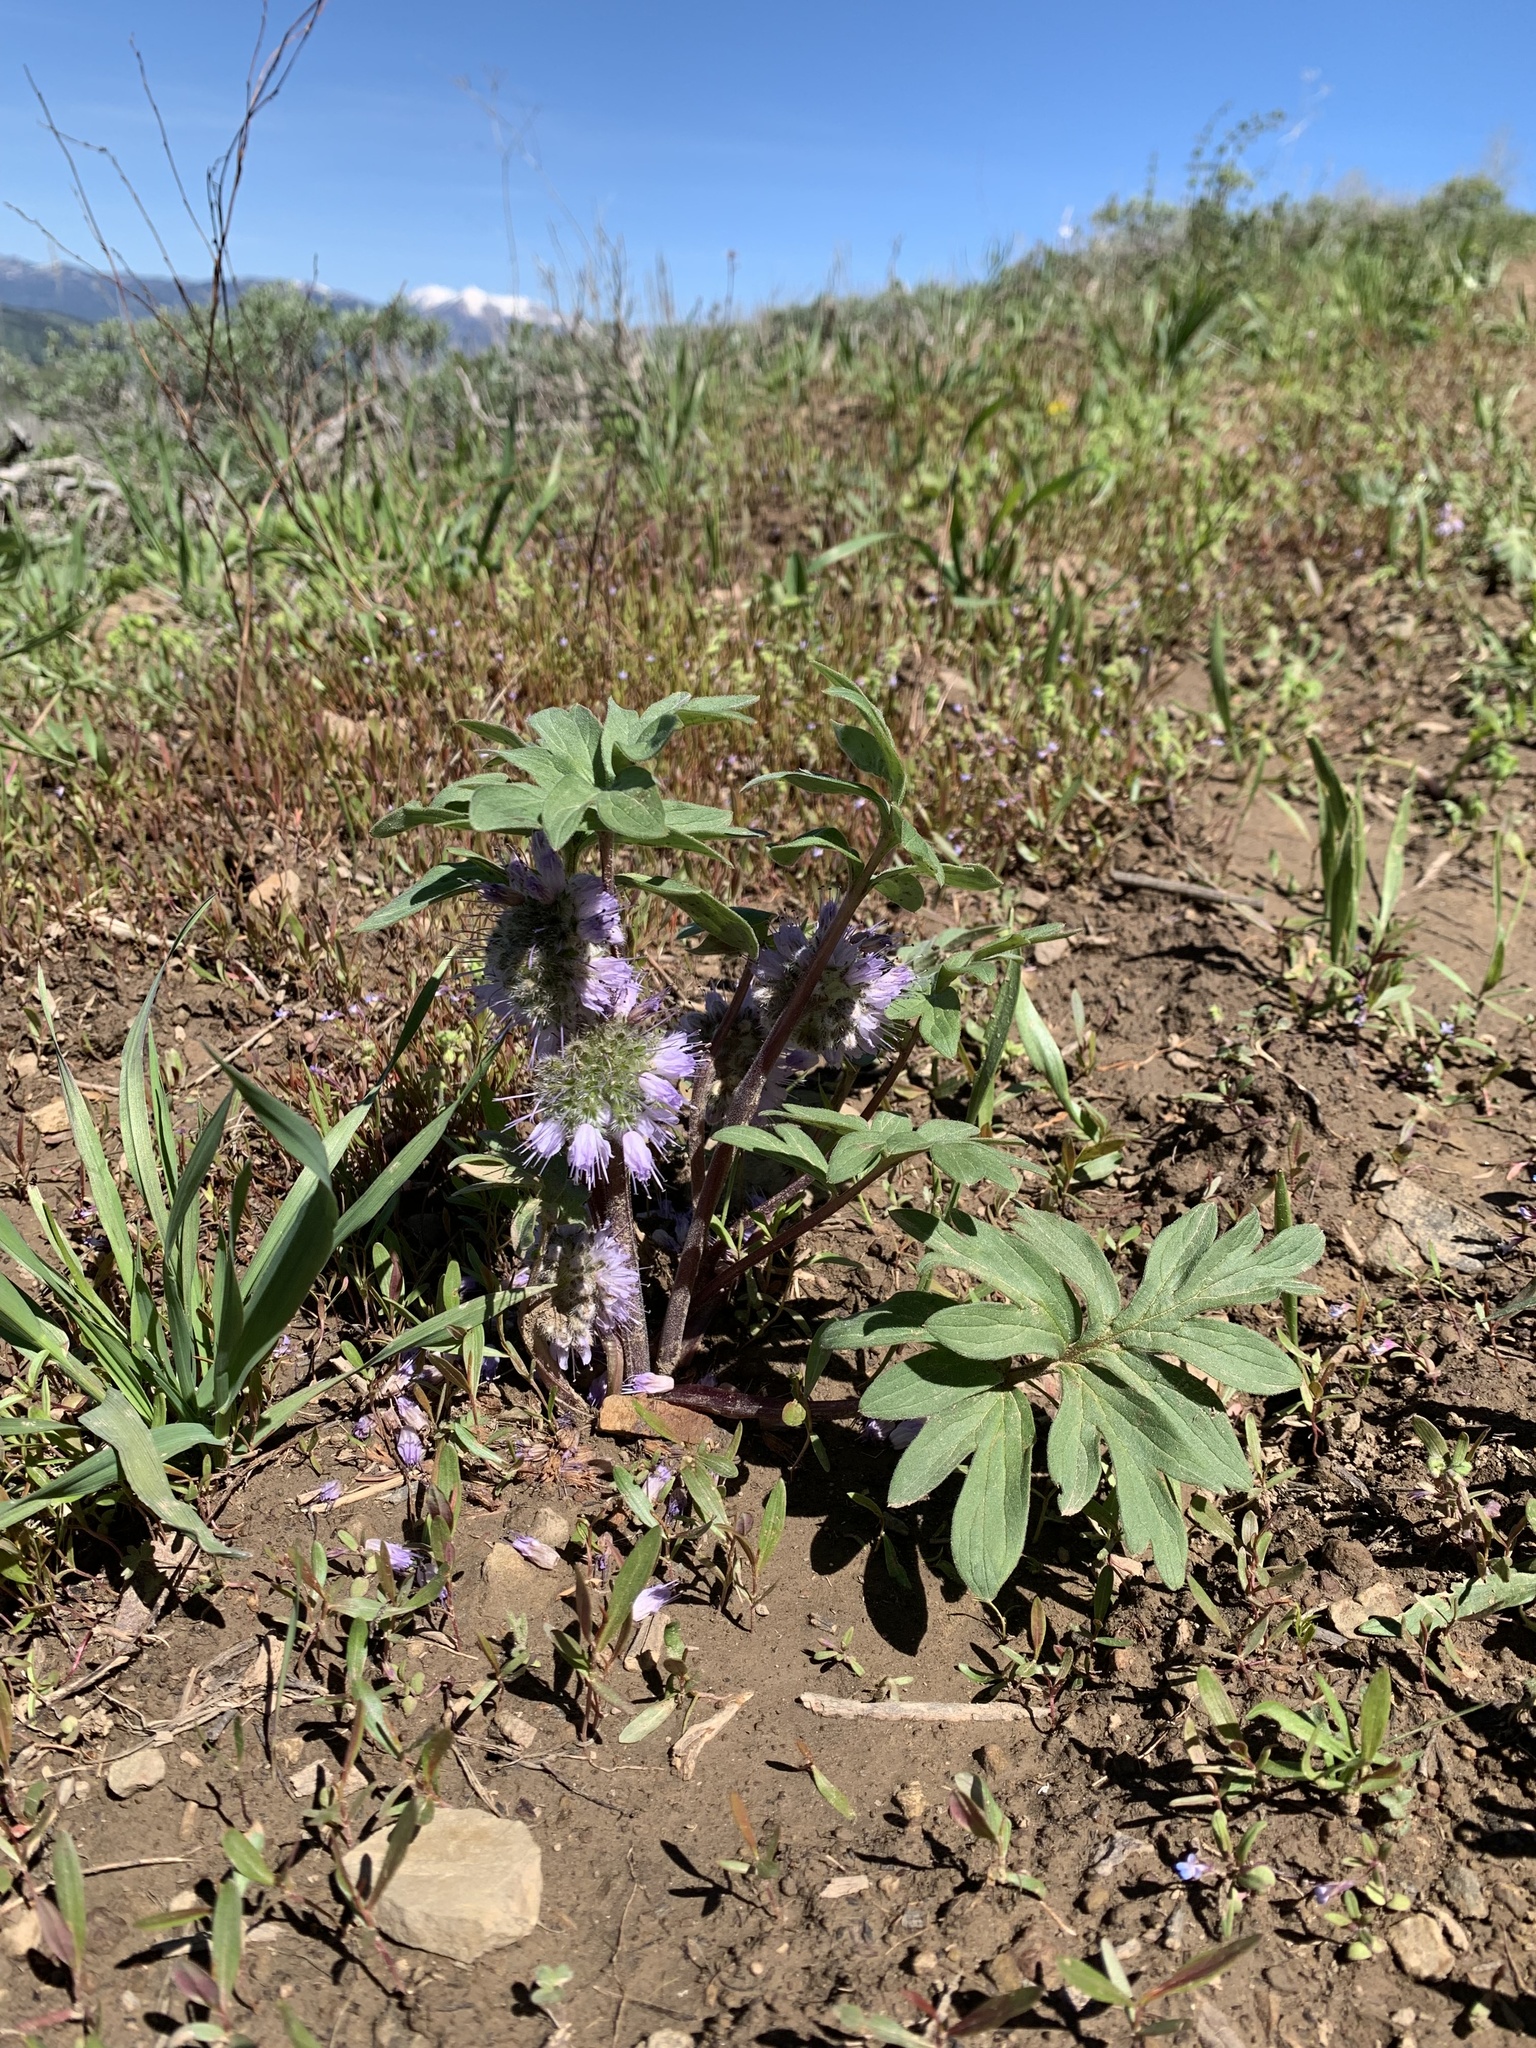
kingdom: Plantae
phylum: Tracheophyta
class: Magnoliopsida
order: Boraginales
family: Hydrophyllaceae
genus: Hydrophyllum
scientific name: Hydrophyllum capitatum
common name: Woollen-breeches
